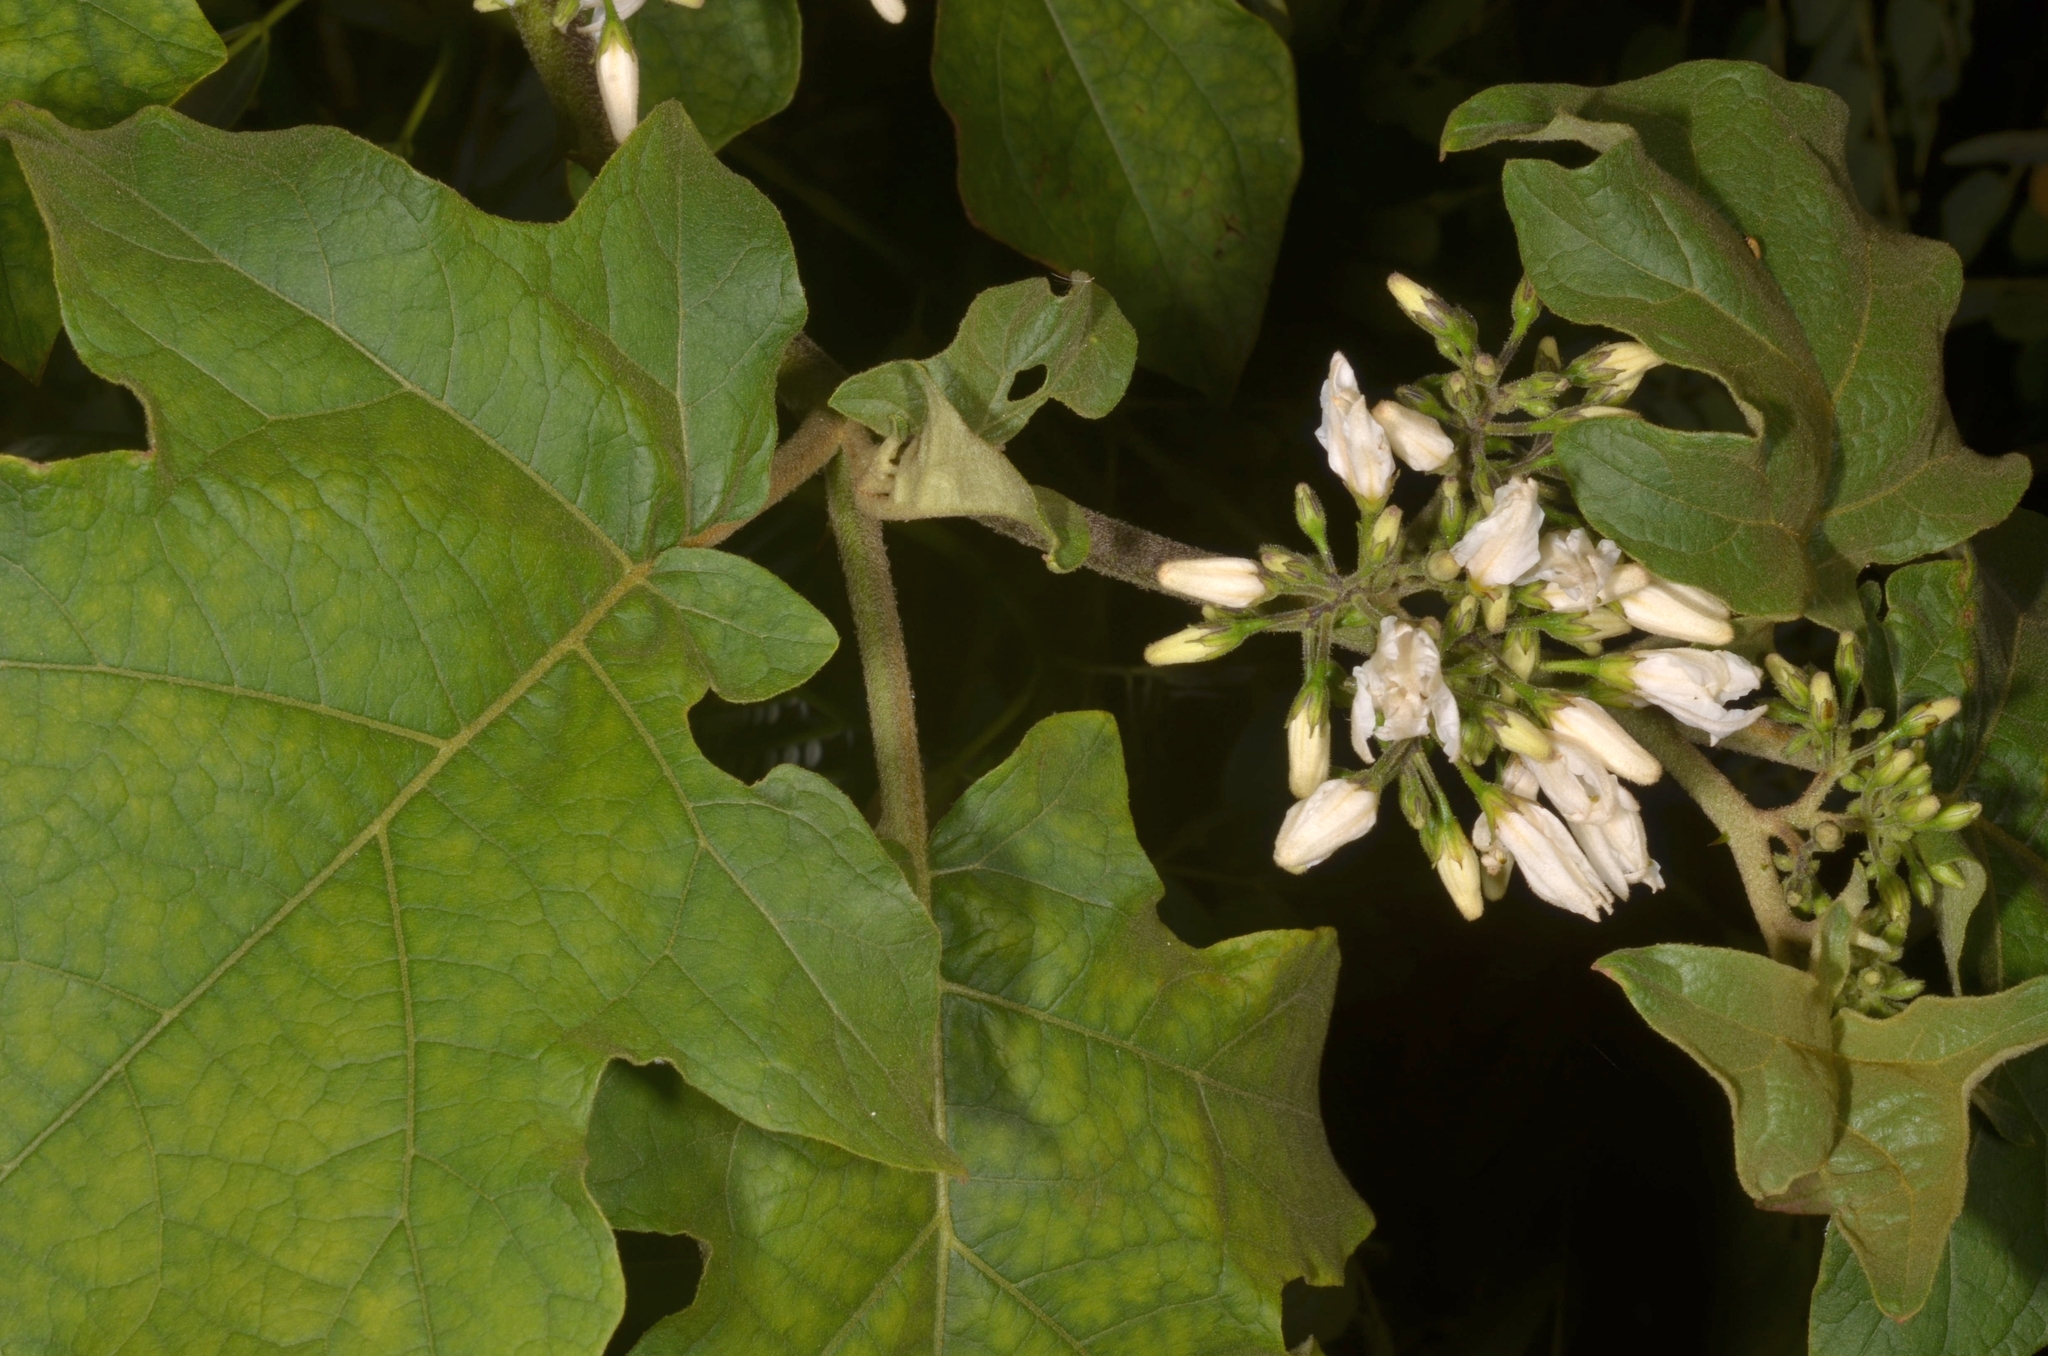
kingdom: Plantae
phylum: Tracheophyta
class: Magnoliopsida
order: Solanales
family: Solanaceae
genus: Solanum
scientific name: Solanum torvum
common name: Turkey berry
